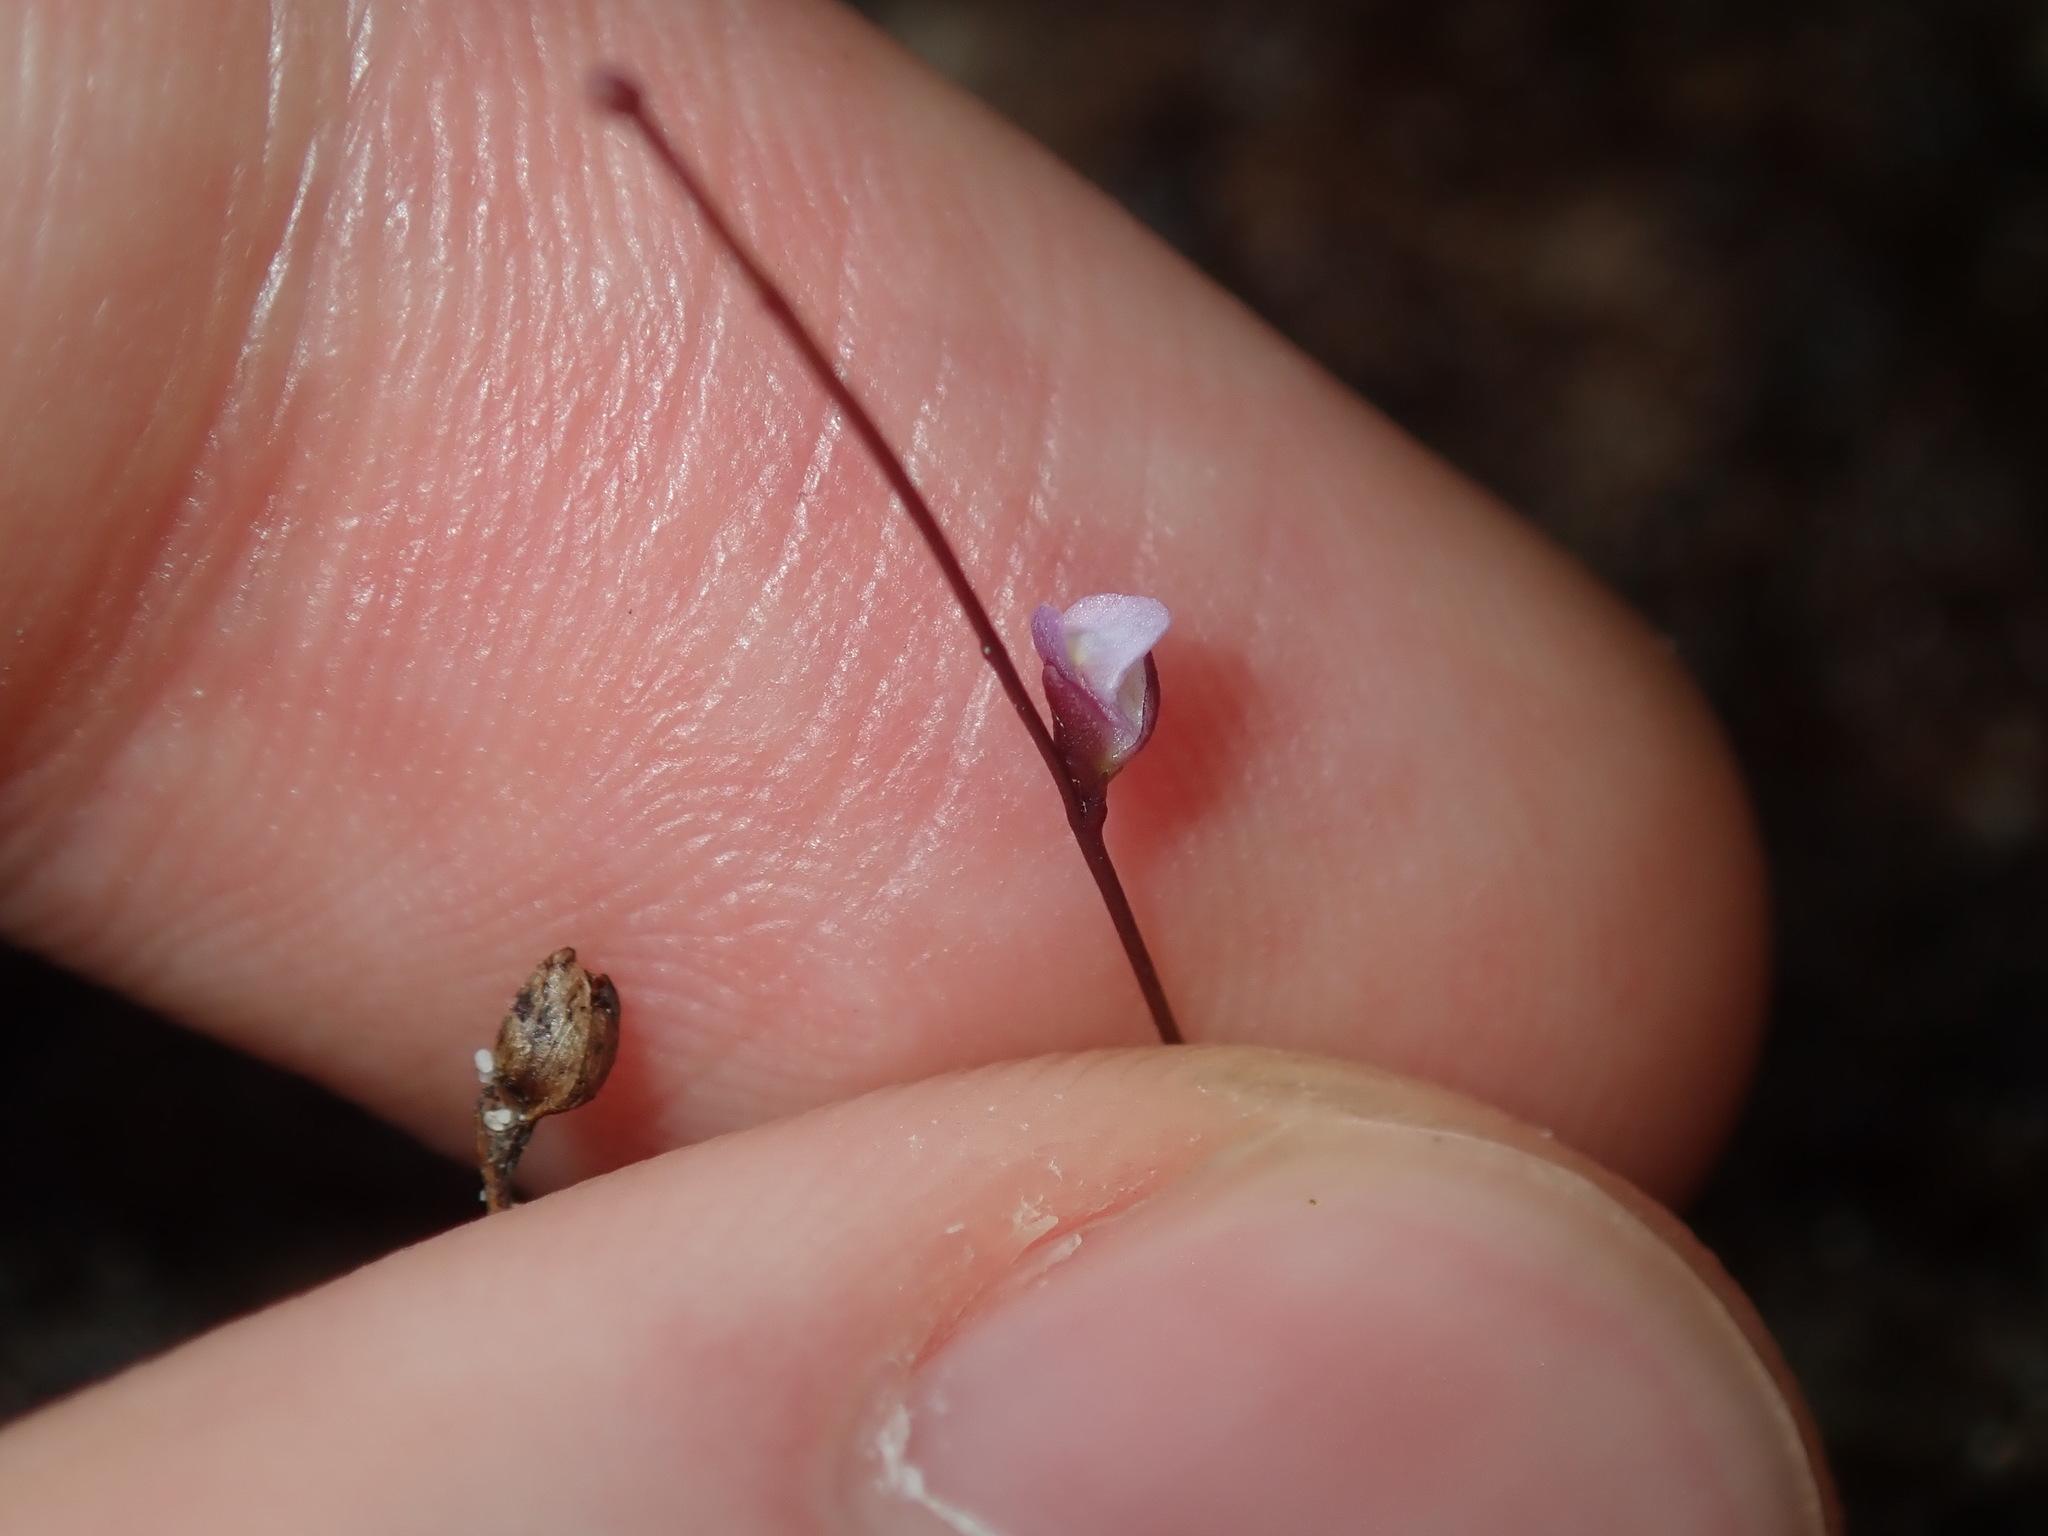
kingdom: Plantae
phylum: Tracheophyta
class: Magnoliopsida
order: Lamiales
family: Lentibulariaceae
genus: Utricularia
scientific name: Utricularia lateriflora
